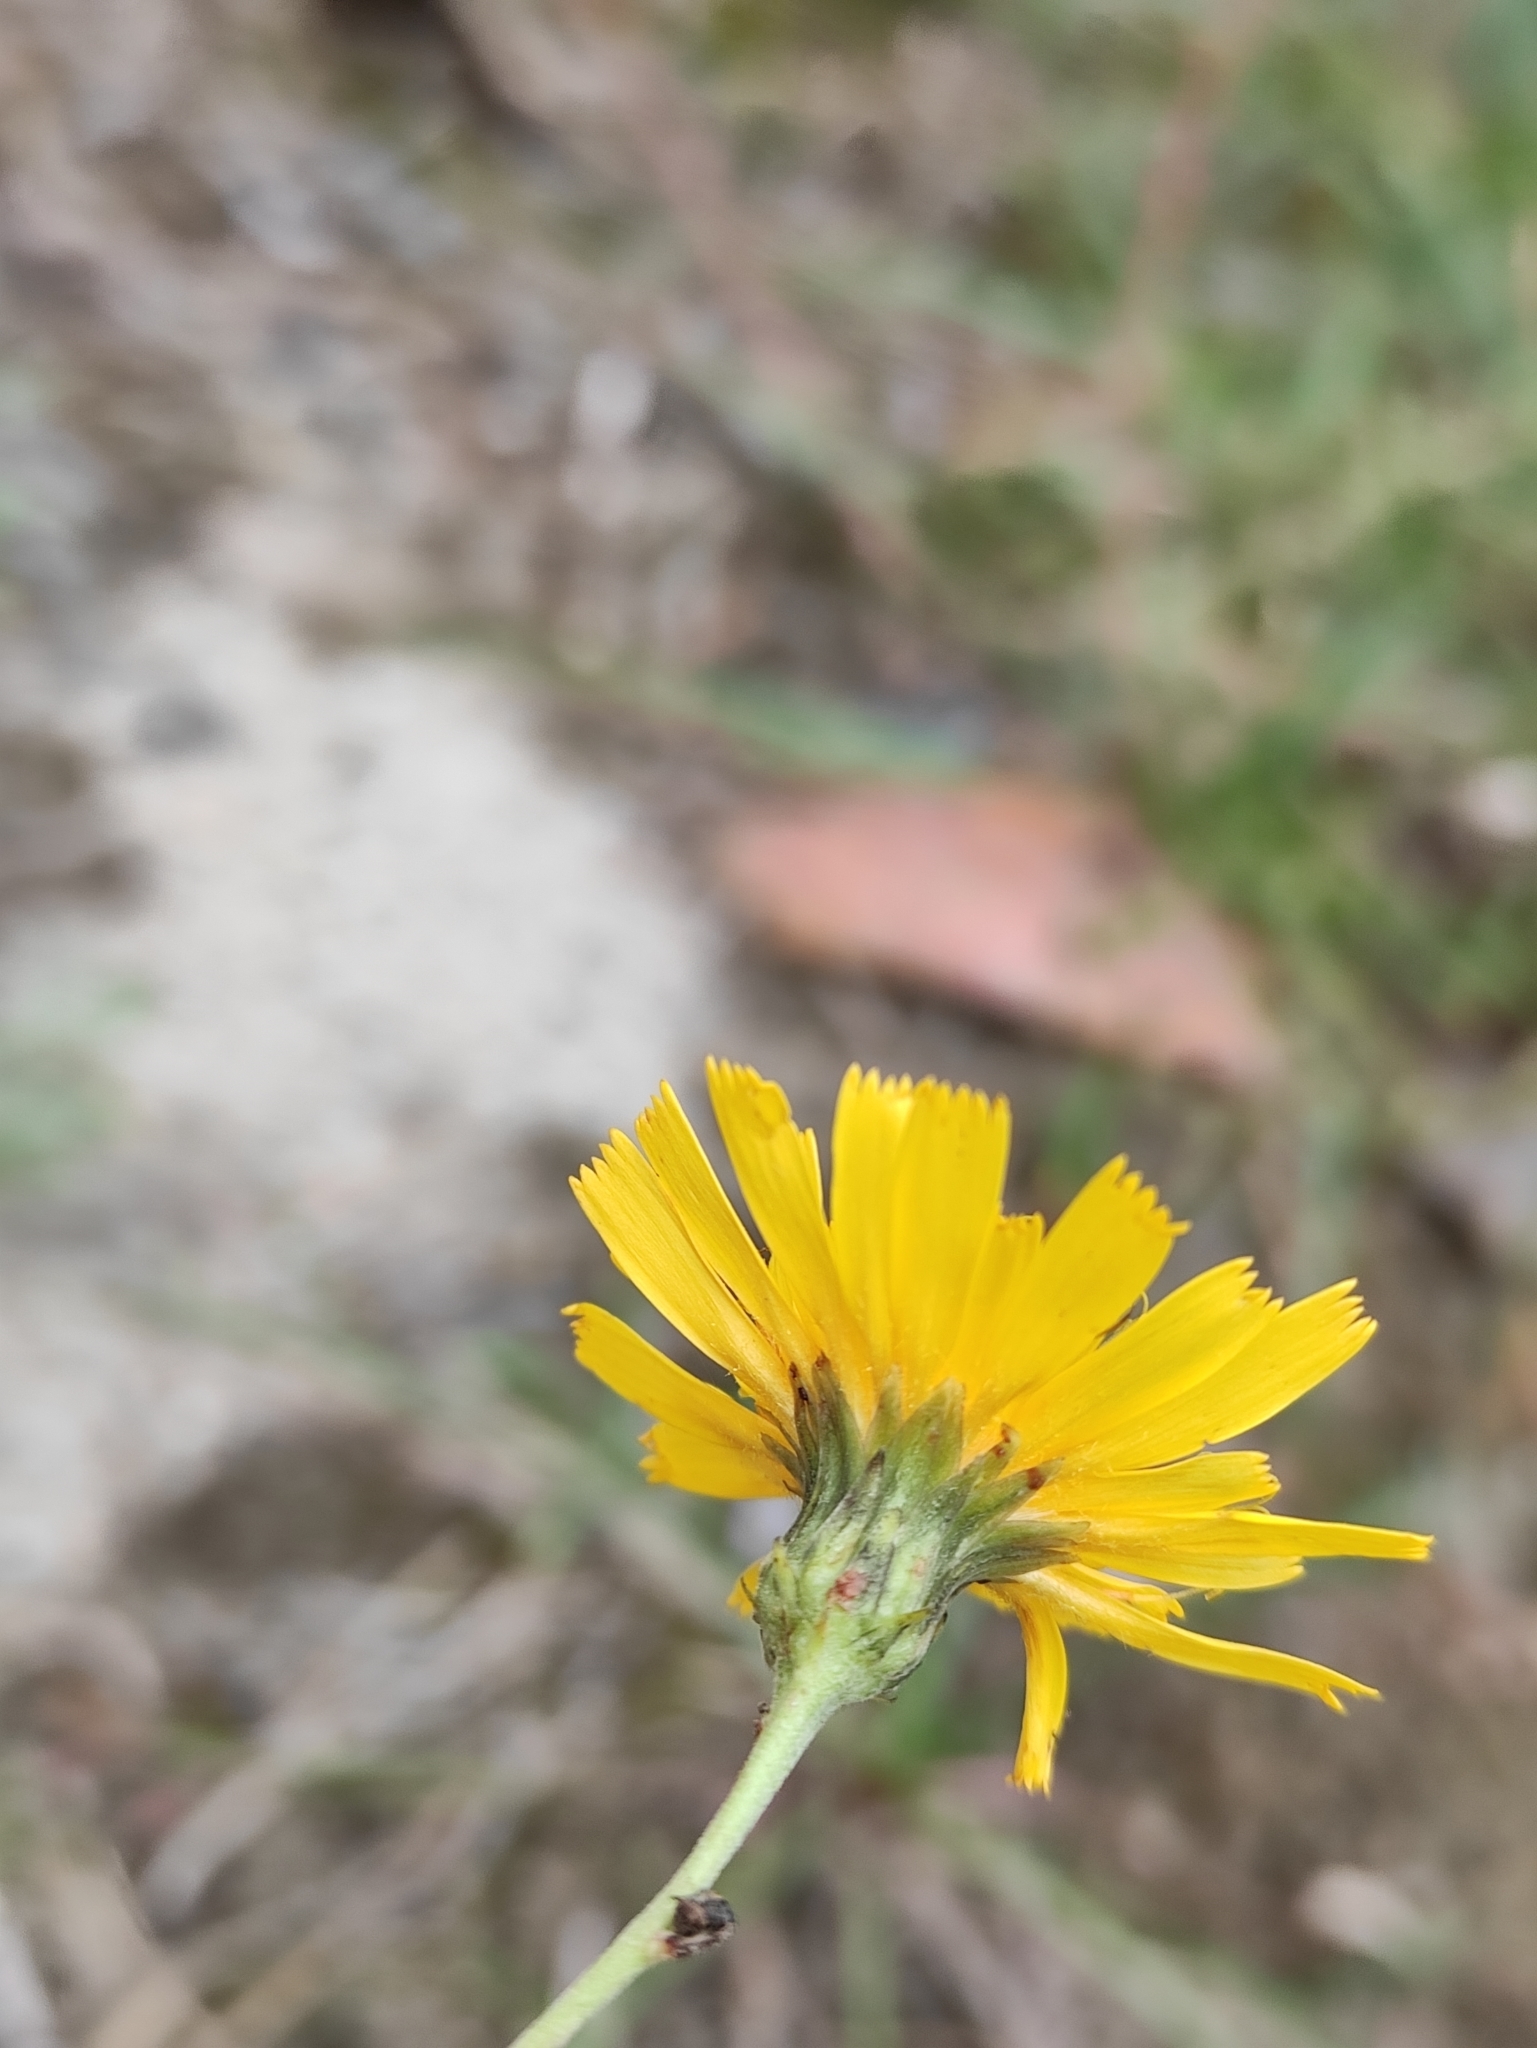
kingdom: Plantae
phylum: Tracheophyta
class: Magnoliopsida
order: Asterales
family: Asteraceae
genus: Hieracium
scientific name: Hieracium umbellatum
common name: Northern hawkweed
